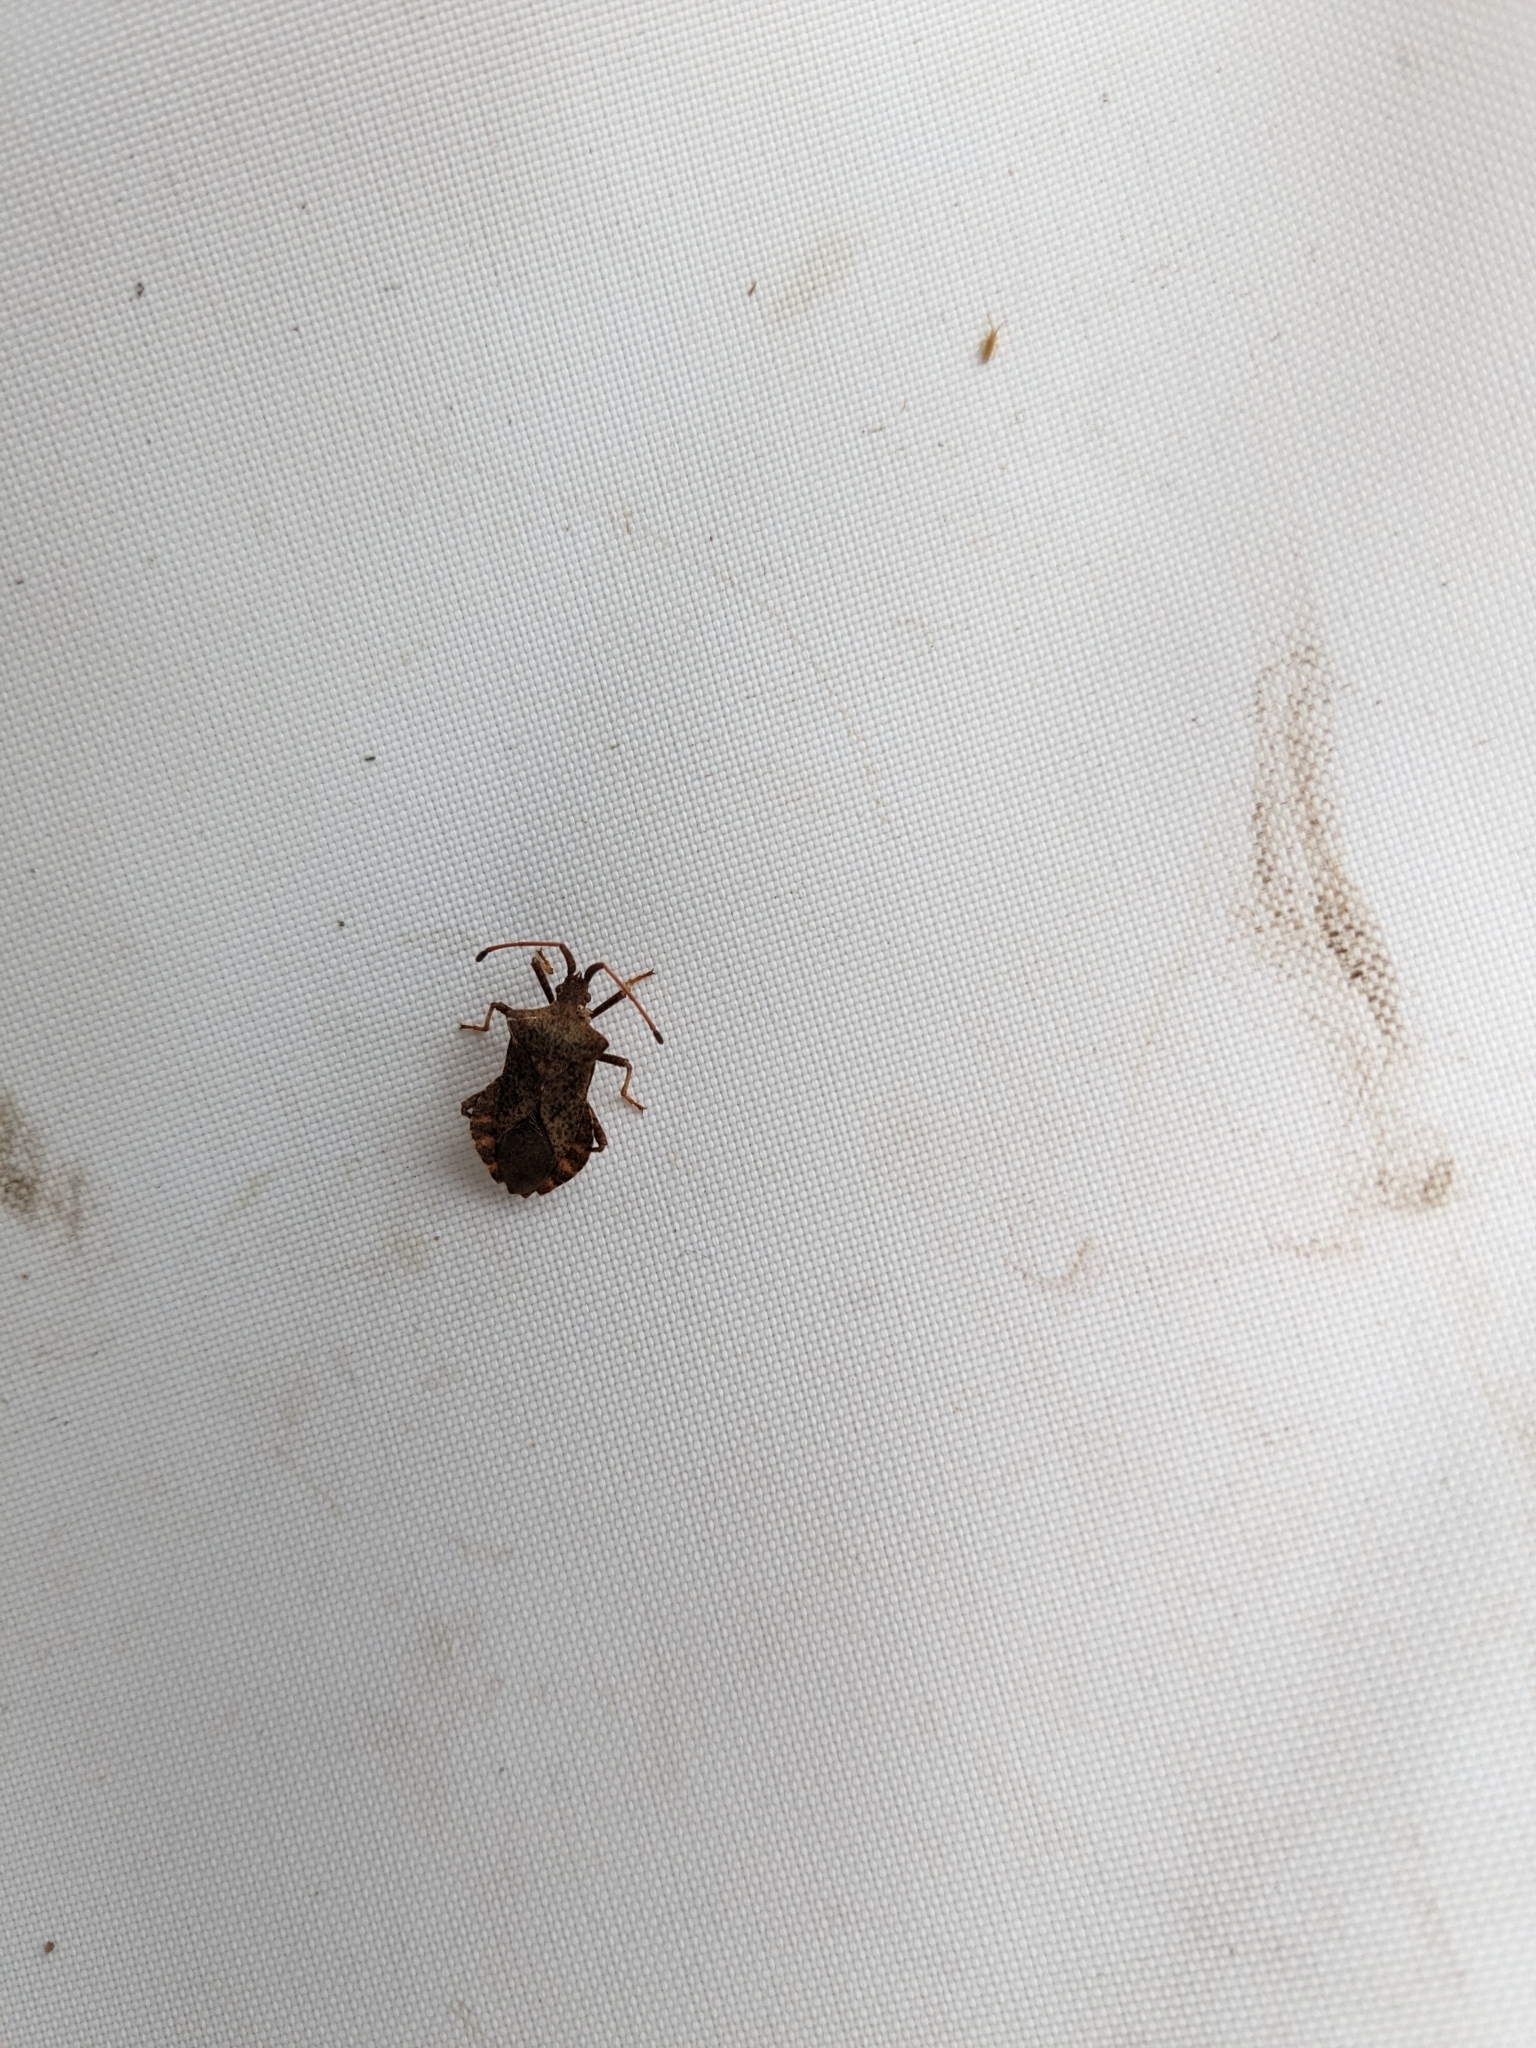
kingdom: Animalia
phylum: Arthropoda
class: Insecta
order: Hemiptera
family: Coreidae
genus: Coreus
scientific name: Coreus marginatus
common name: Dock bug
